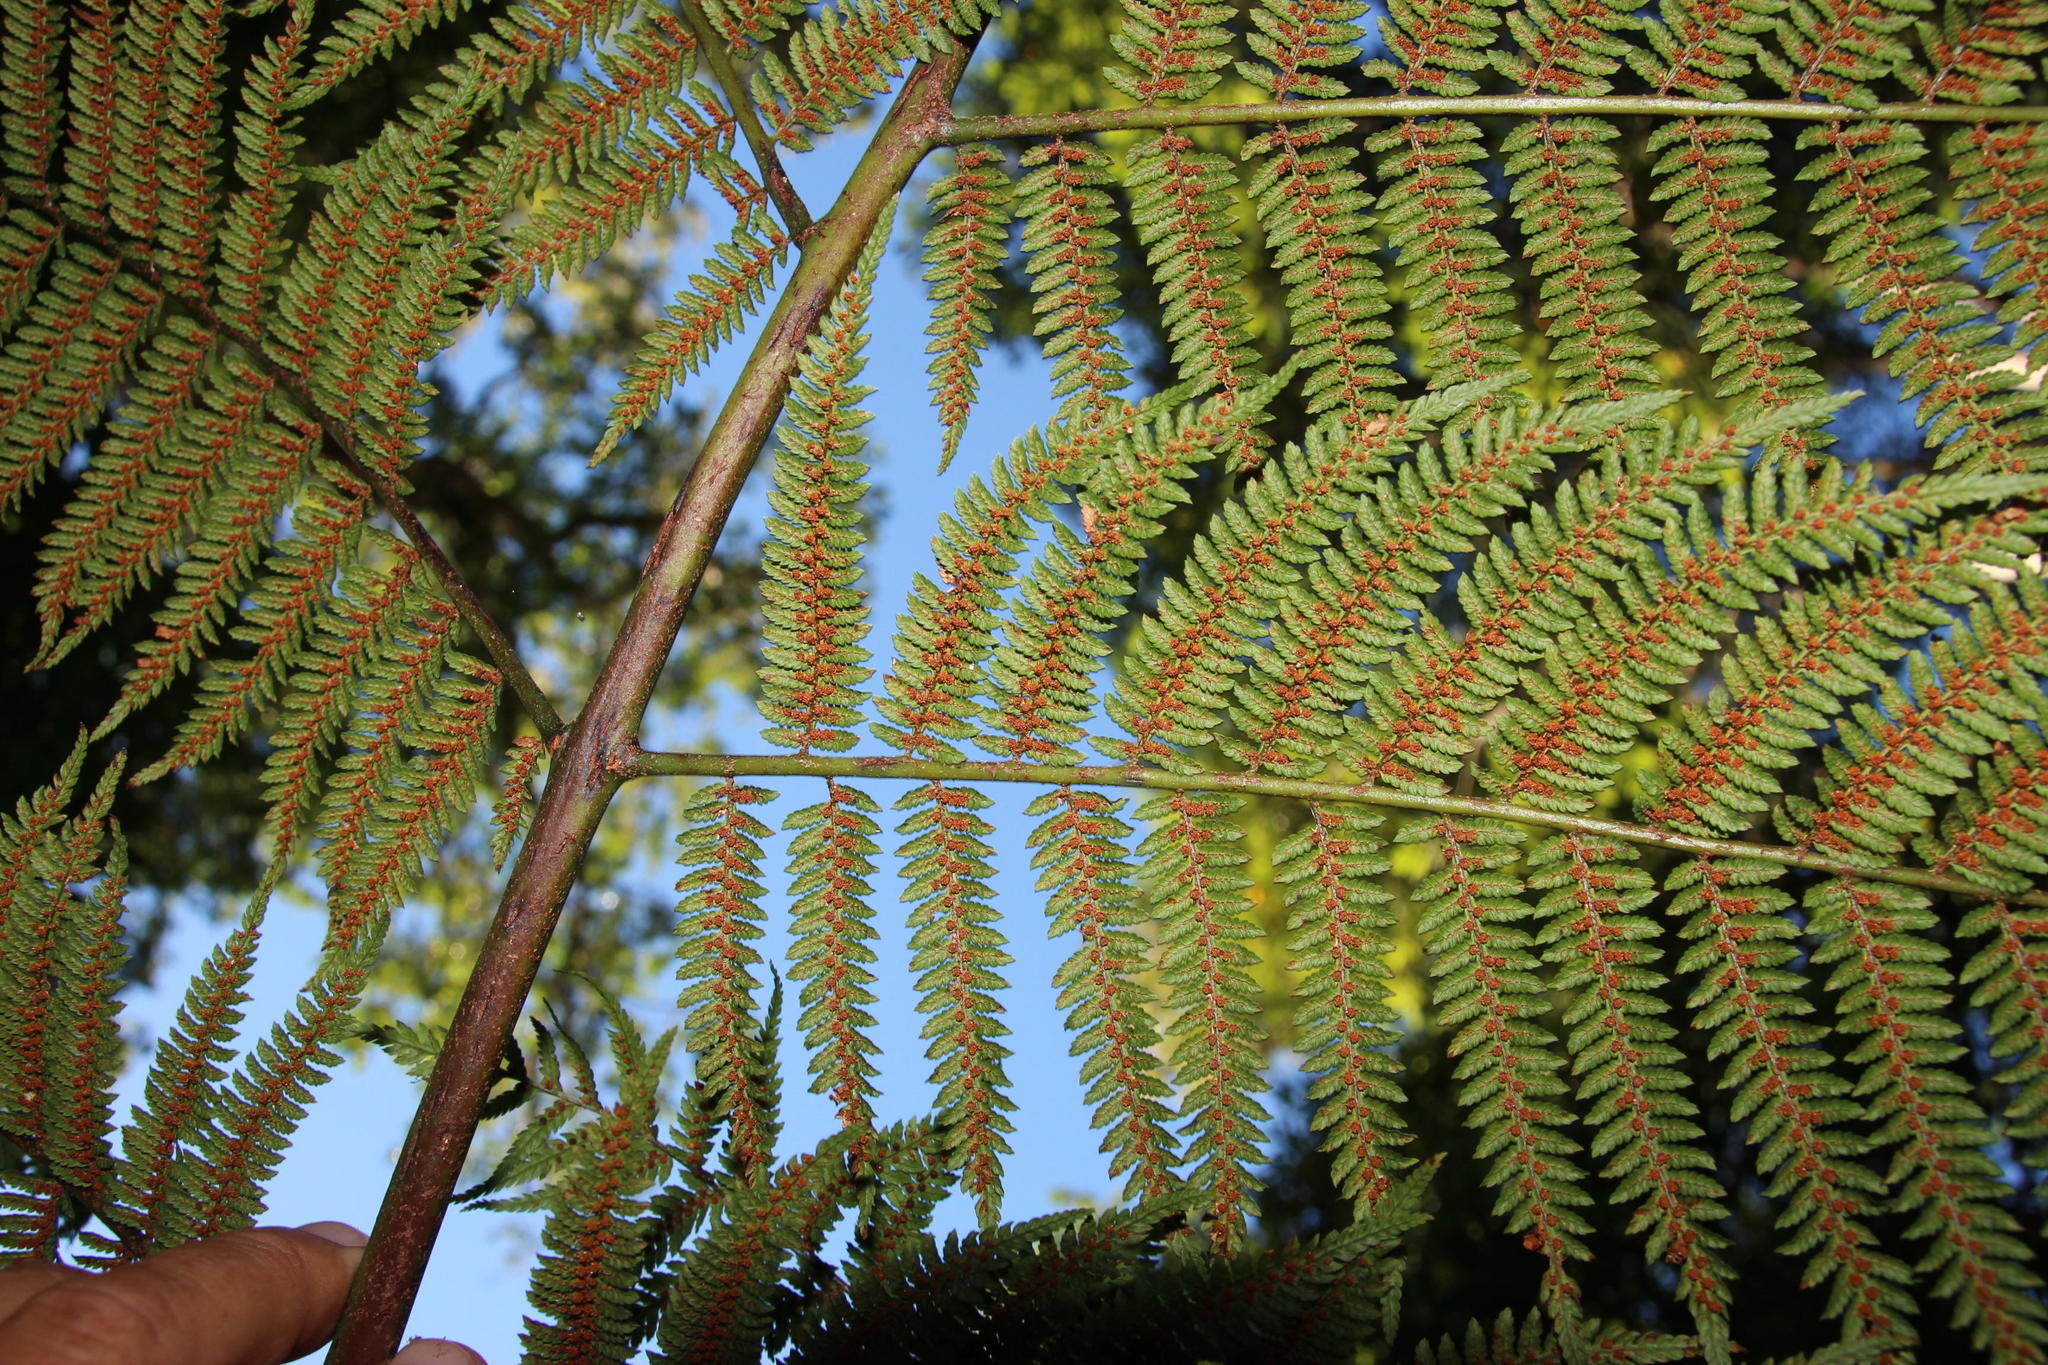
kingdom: Plantae
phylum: Tracheophyta
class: Polypodiopsida
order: Cyatheales
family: Cyatheaceae
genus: Gymnosphaera
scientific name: Gymnosphaera capensis
